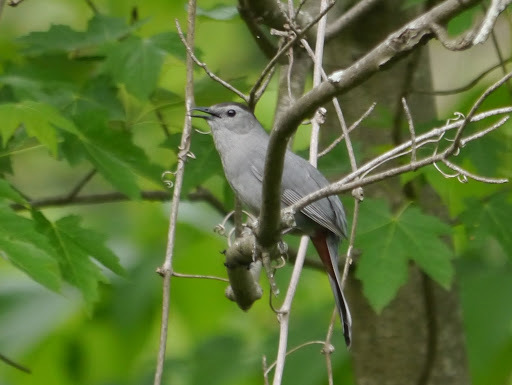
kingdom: Animalia
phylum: Chordata
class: Aves
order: Passeriformes
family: Mimidae
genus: Dumetella
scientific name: Dumetella carolinensis
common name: Gray catbird
